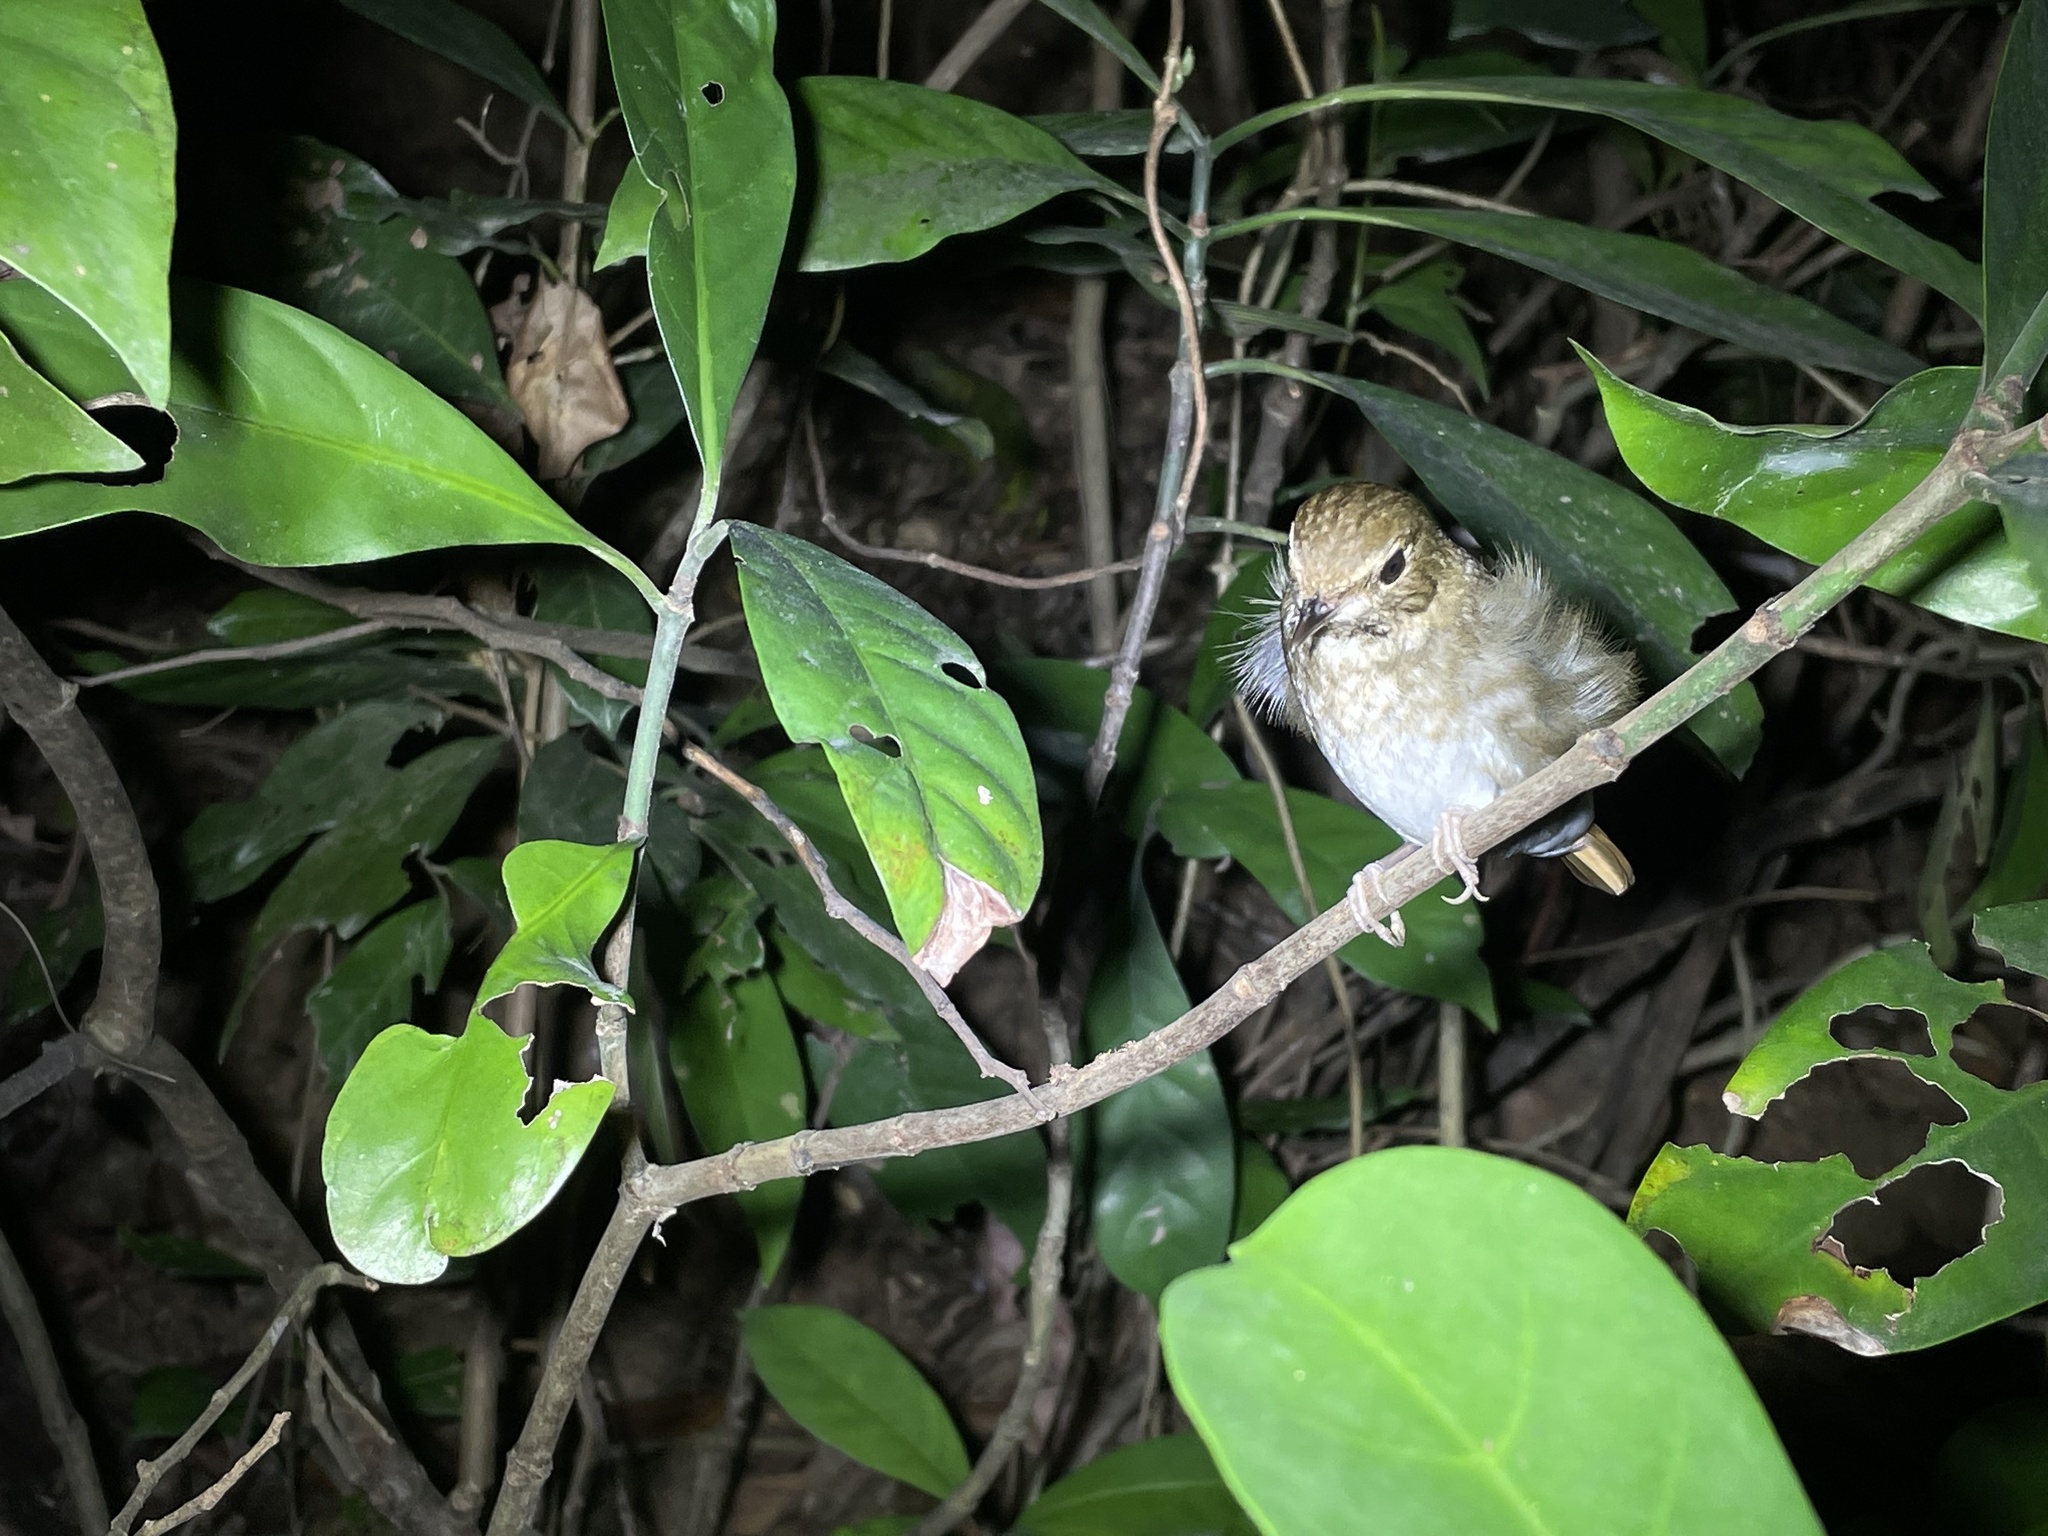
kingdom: Animalia
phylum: Chordata
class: Aves
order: Passeriformes
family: Muscicapidae
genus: Larvivora
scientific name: Larvivora sibilans
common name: Rufous-tailed robin
